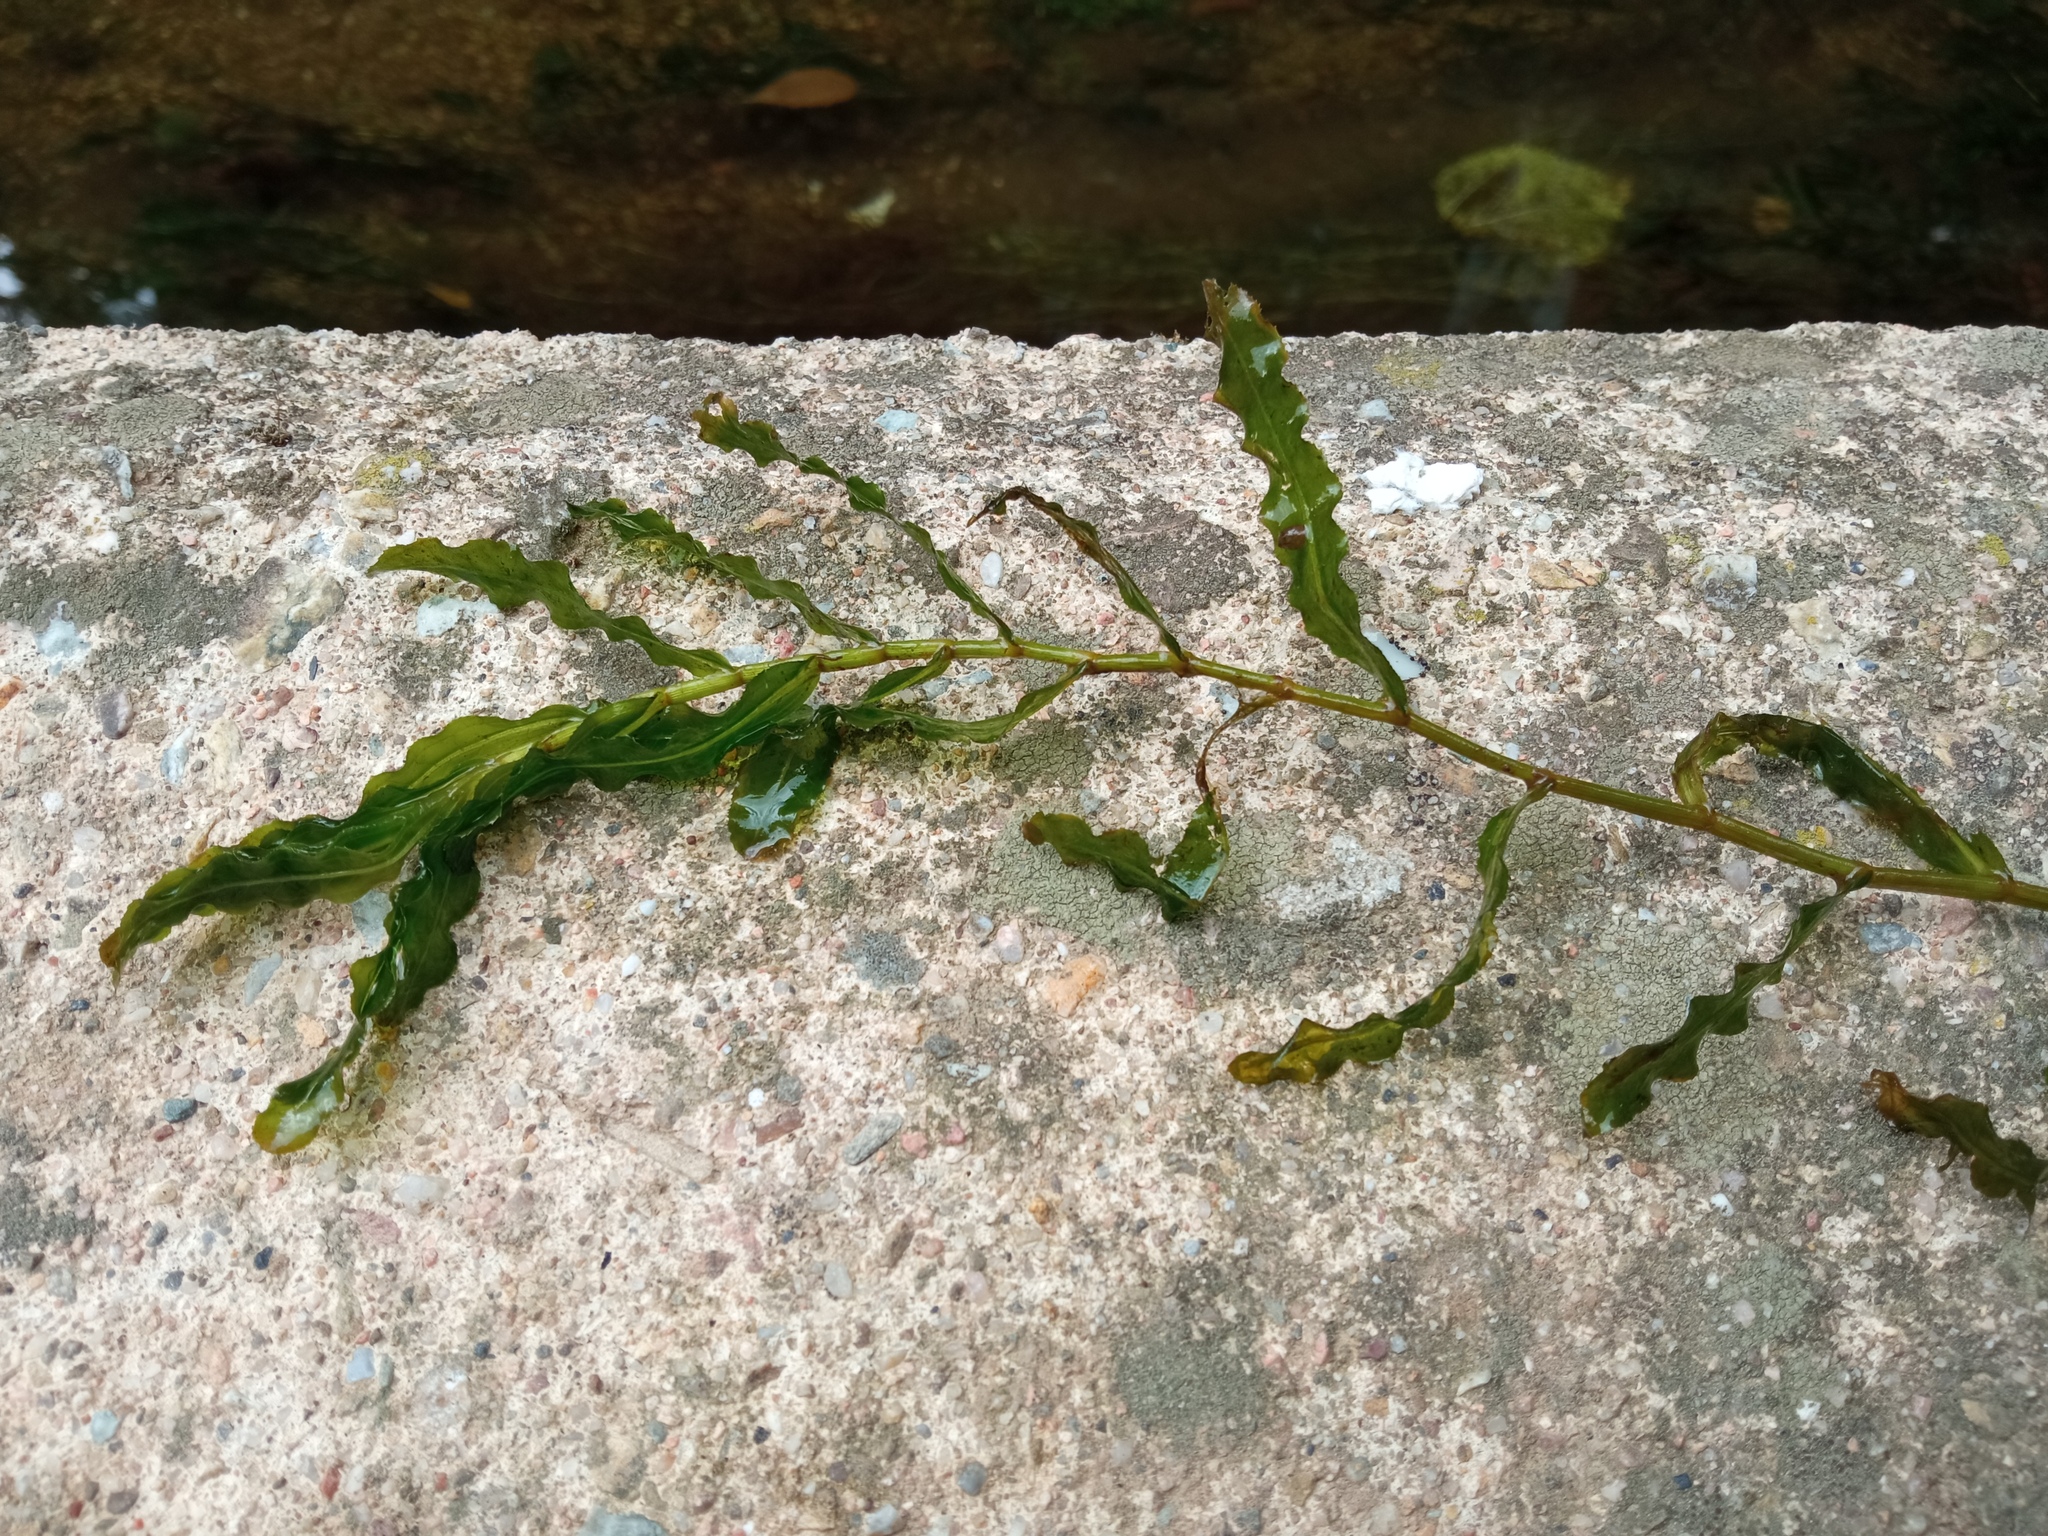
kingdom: Plantae
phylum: Tracheophyta
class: Liliopsida
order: Alismatales
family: Potamogetonaceae
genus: Potamogeton
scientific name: Potamogeton crispus
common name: Curled pondweed
